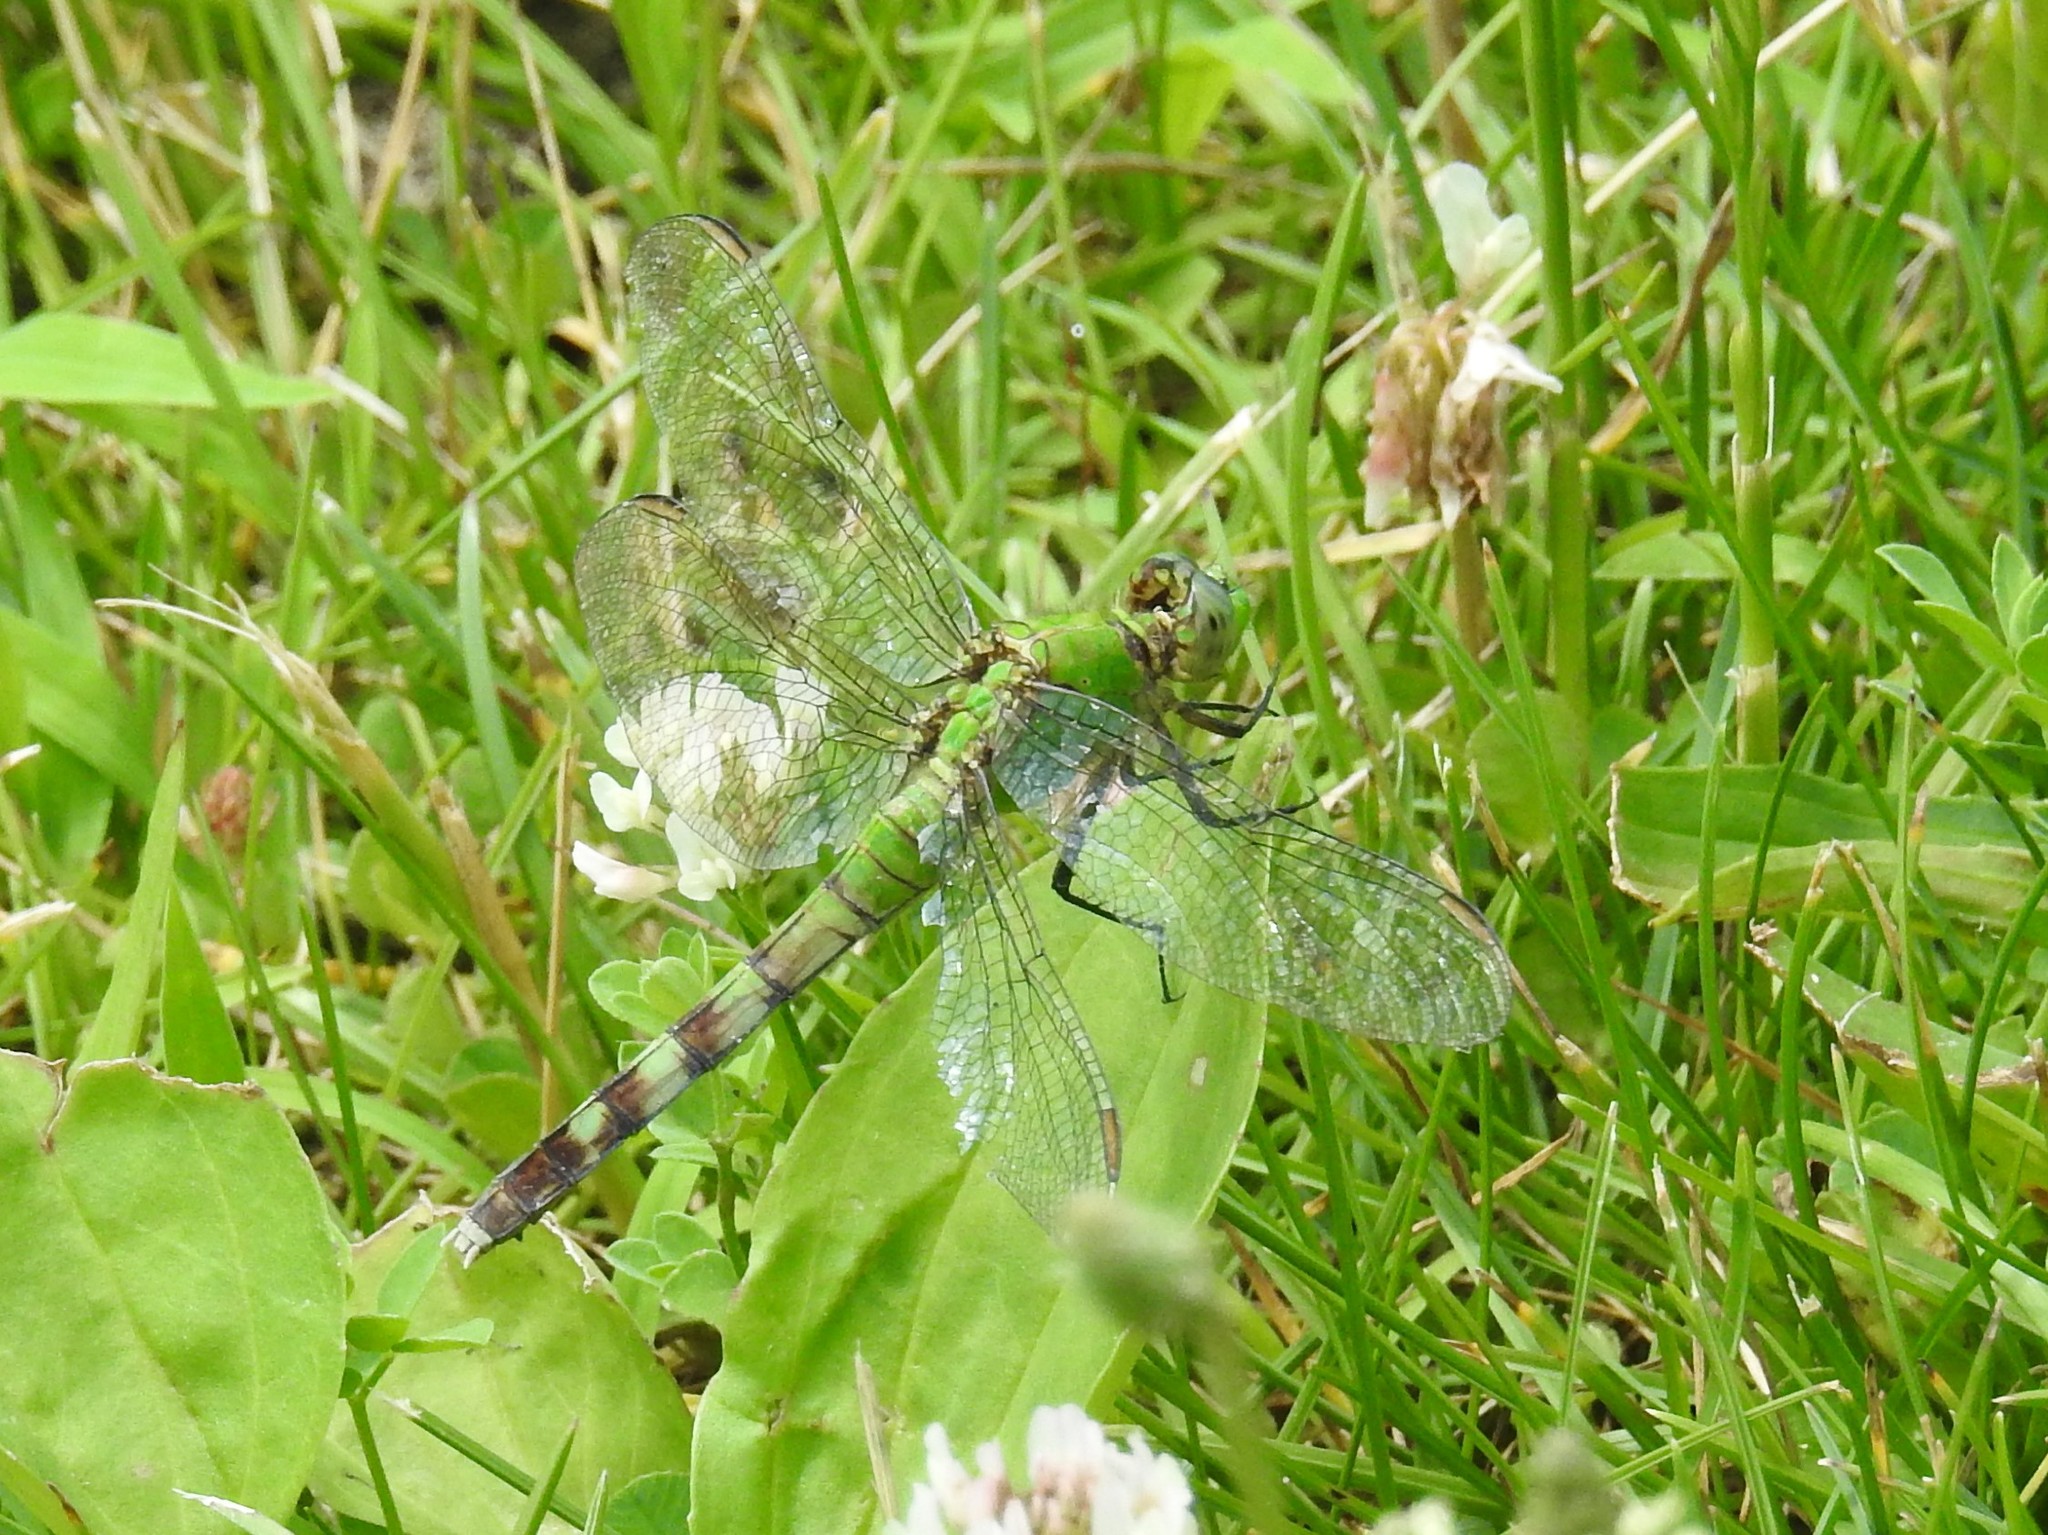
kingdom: Animalia
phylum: Arthropoda
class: Insecta
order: Odonata
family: Libellulidae
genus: Erythemis
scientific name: Erythemis simplicicollis
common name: Eastern pondhawk
